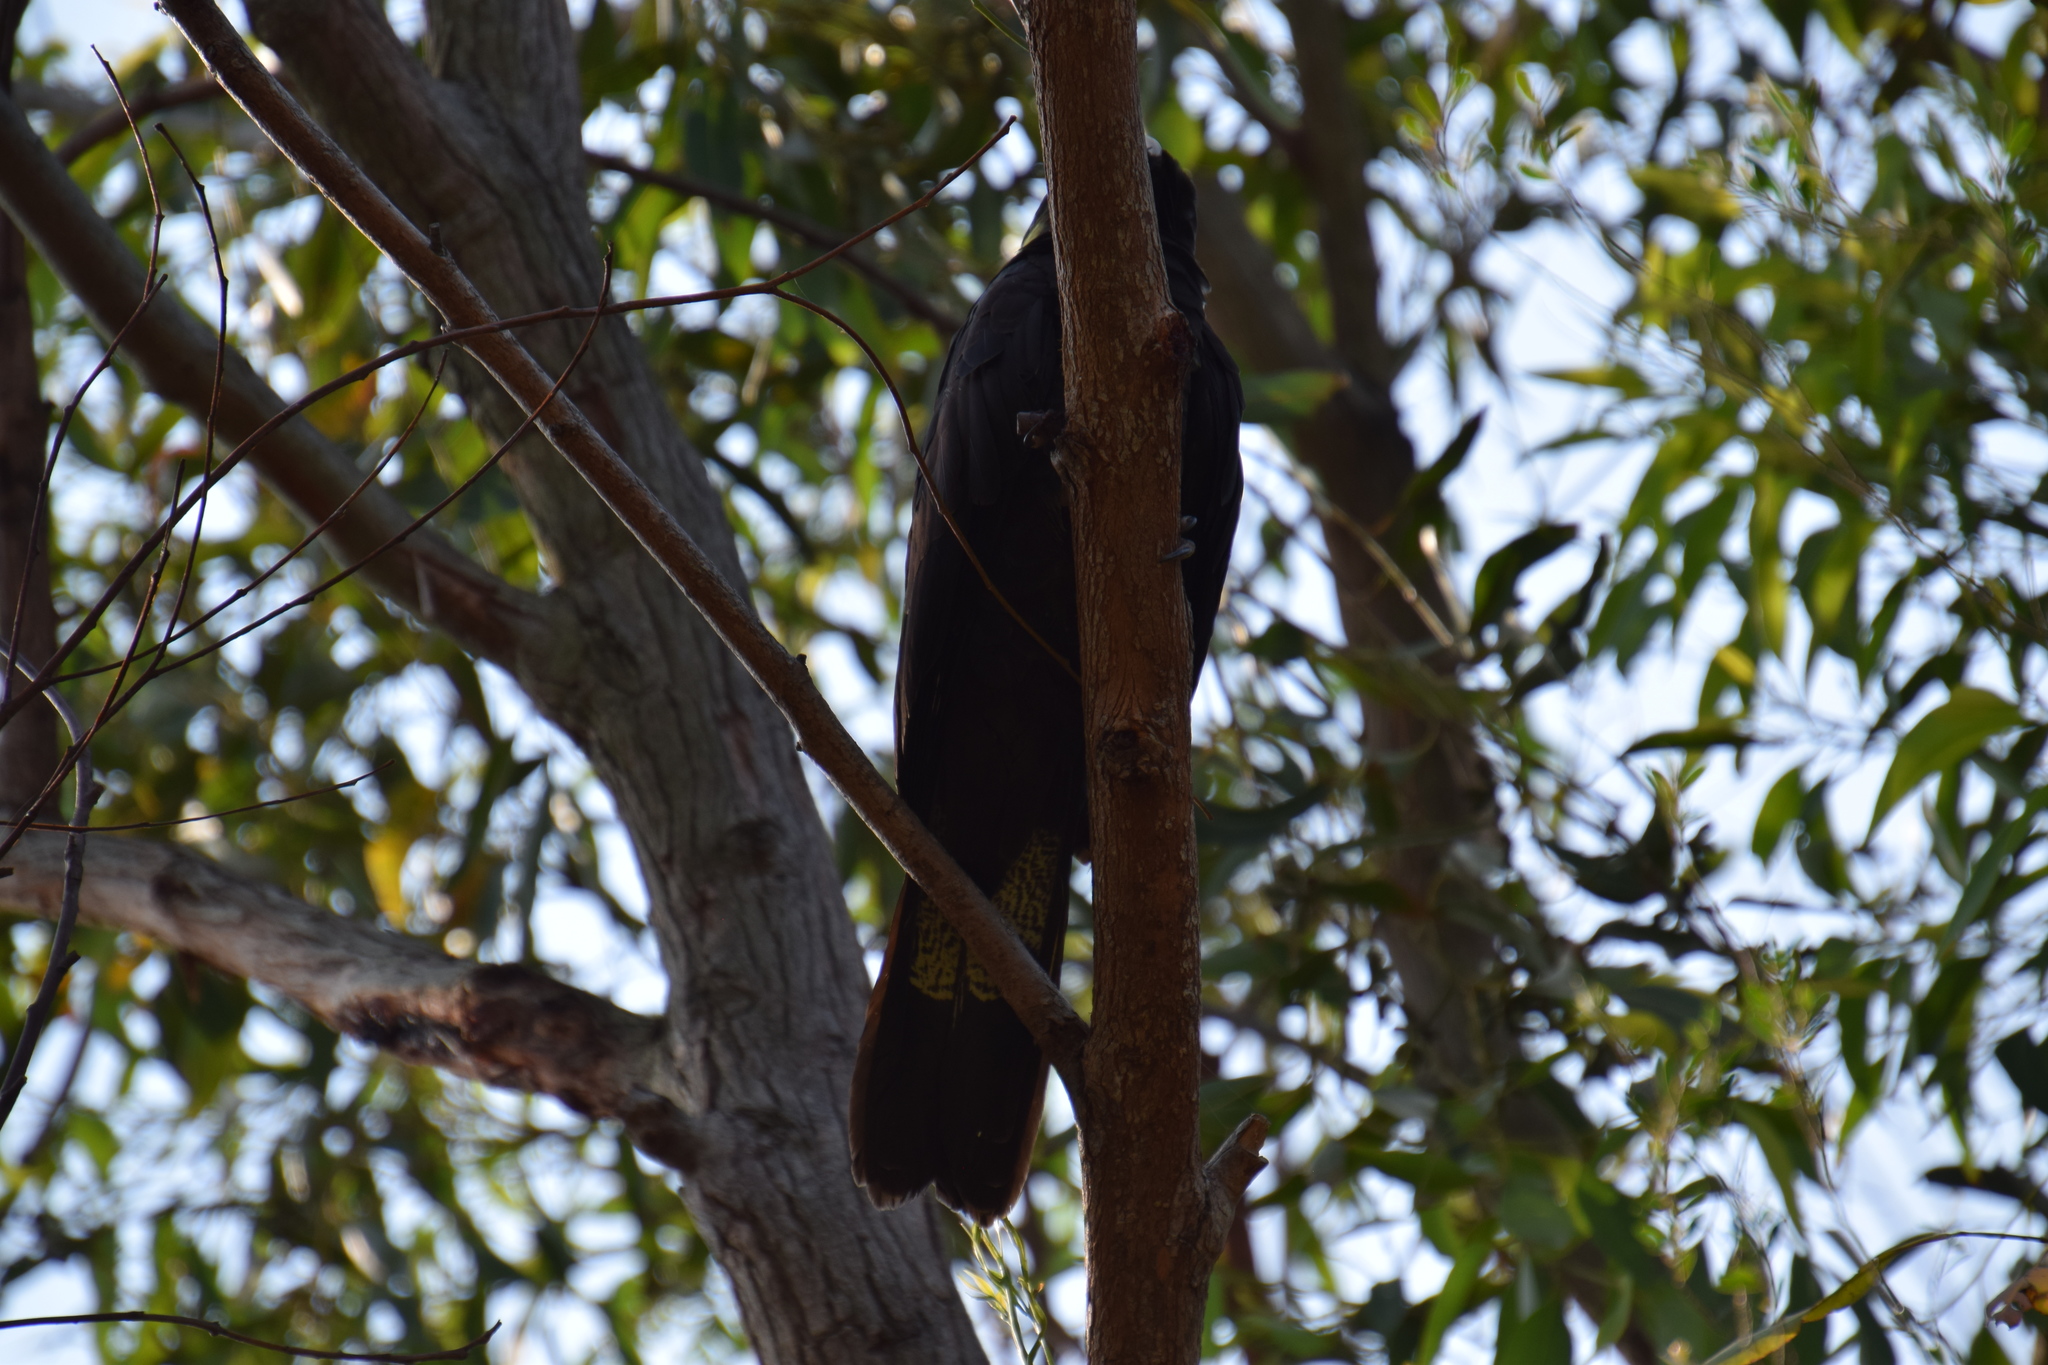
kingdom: Animalia
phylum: Chordata
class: Aves
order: Psittaciformes
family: Cacatuidae
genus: Zanda
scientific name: Zanda funerea
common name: Yellow-tailed black-cockatoo
